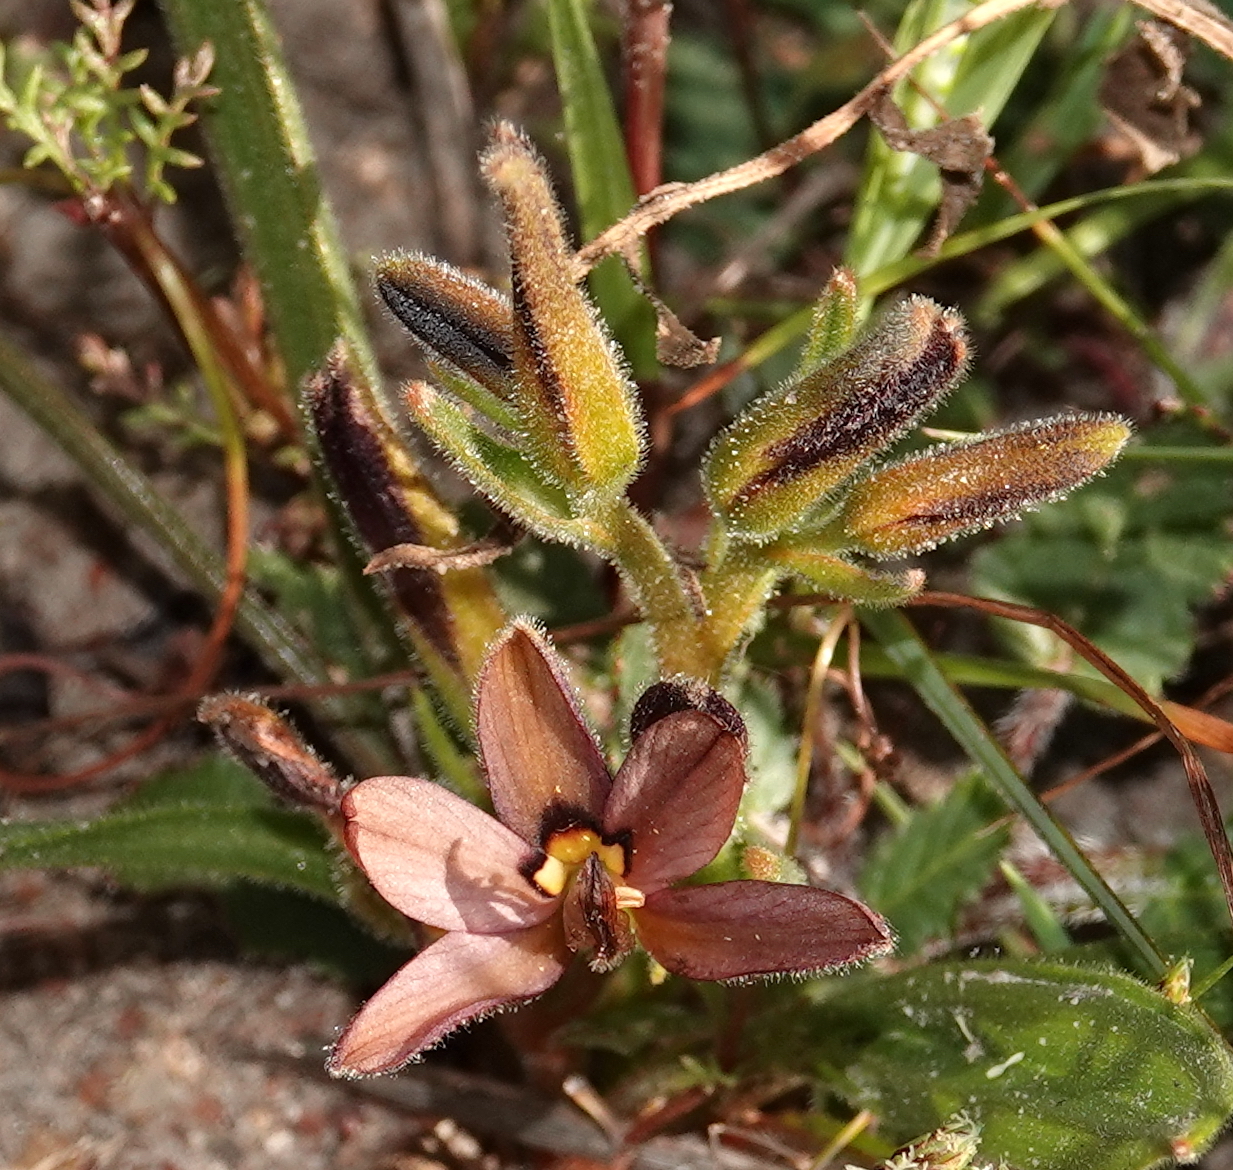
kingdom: Plantae
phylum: Tracheophyta
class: Liliopsida
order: Commelinales
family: Haemodoraceae
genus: Wachendorfia
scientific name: Wachendorfia multiflora
